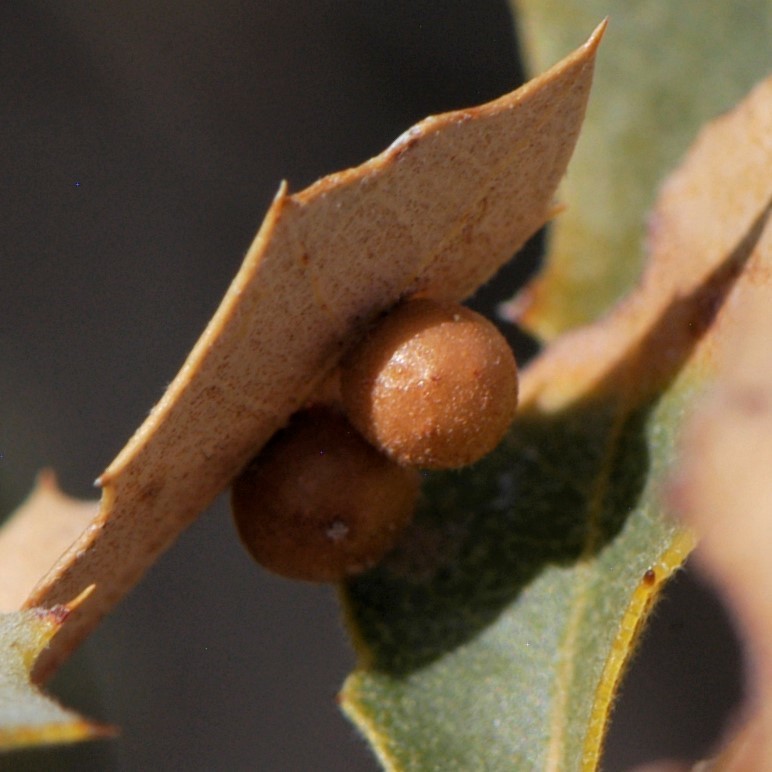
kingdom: Animalia
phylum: Arthropoda
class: Insecta
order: Hymenoptera
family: Cynipidae
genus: Biorhiza
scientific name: Biorhiza
